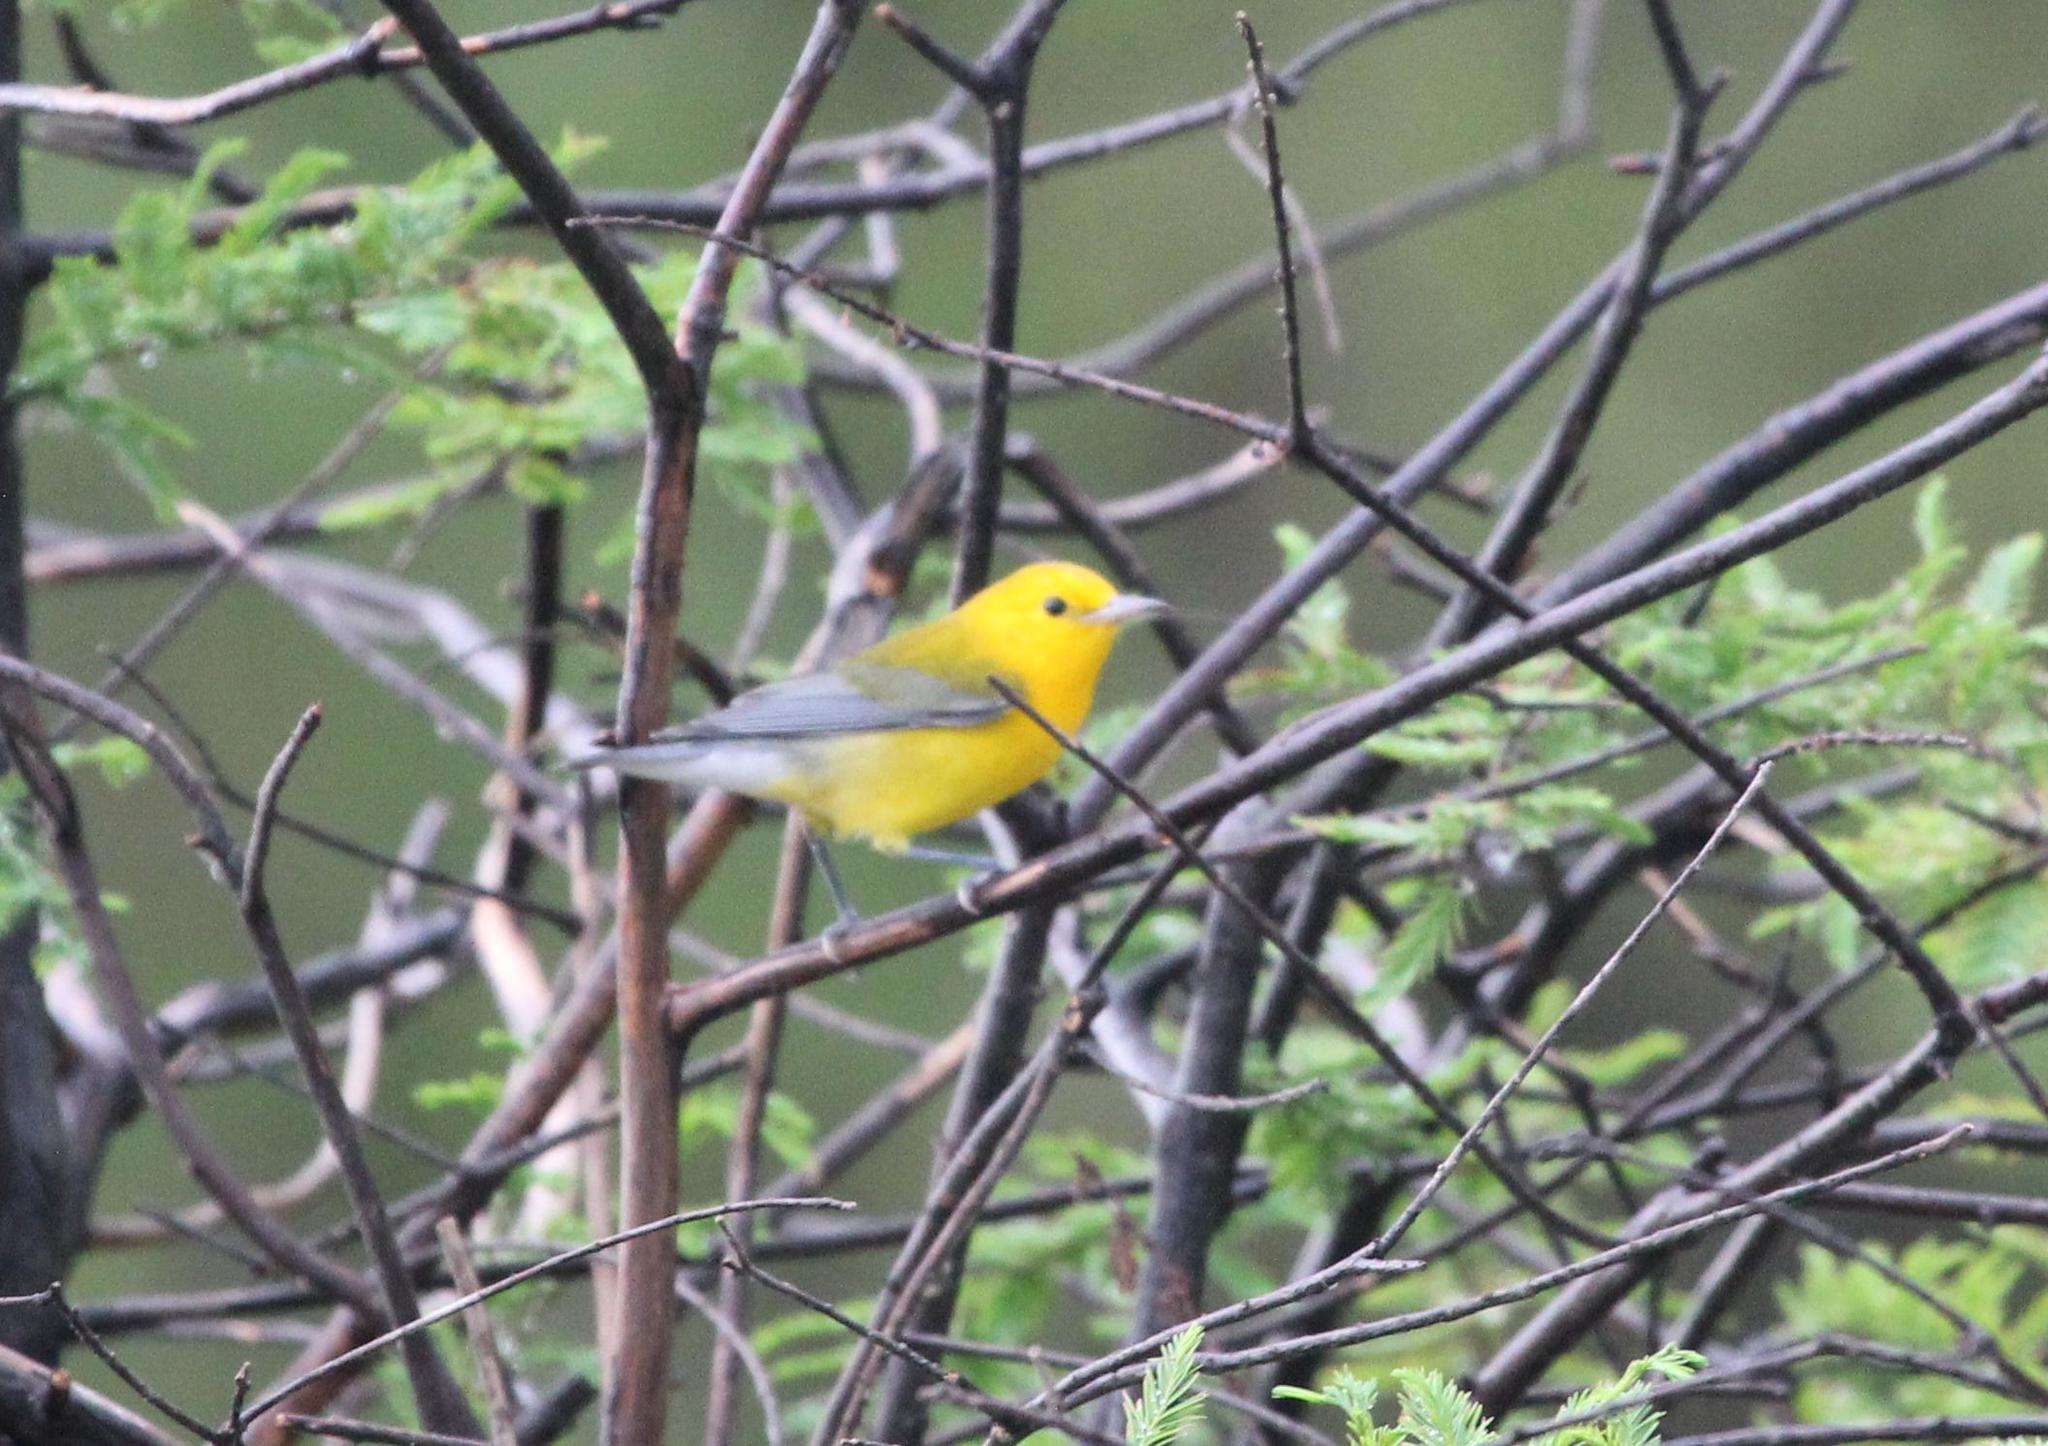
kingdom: Animalia
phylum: Chordata
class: Aves
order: Passeriformes
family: Parulidae
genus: Protonotaria
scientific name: Protonotaria citrea
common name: Prothonotary warbler
